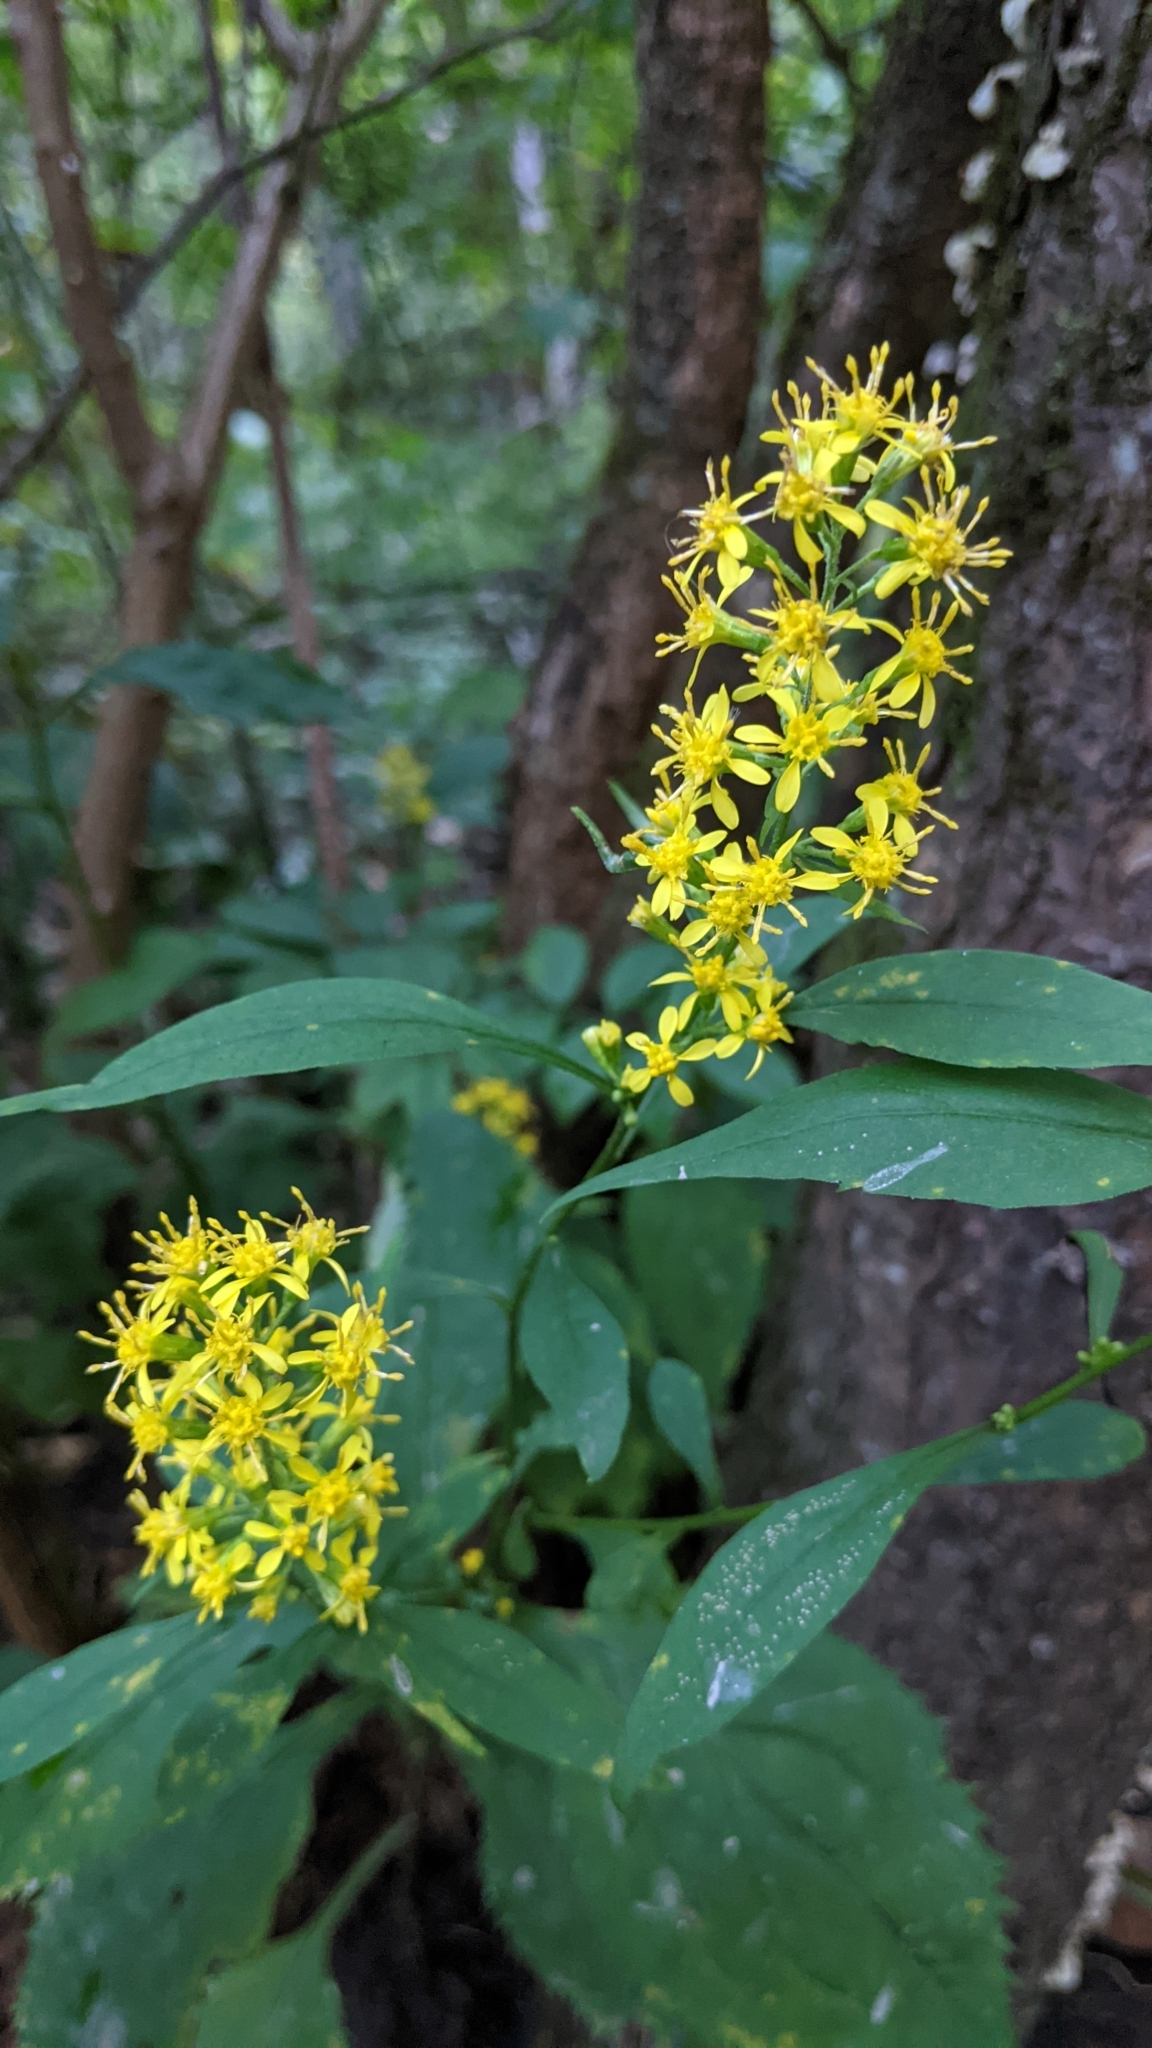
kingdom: Plantae
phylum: Tracheophyta
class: Magnoliopsida
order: Asterales
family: Asteraceae
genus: Solidago
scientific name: Solidago flexicaulis
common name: Zig-zag goldenrod
